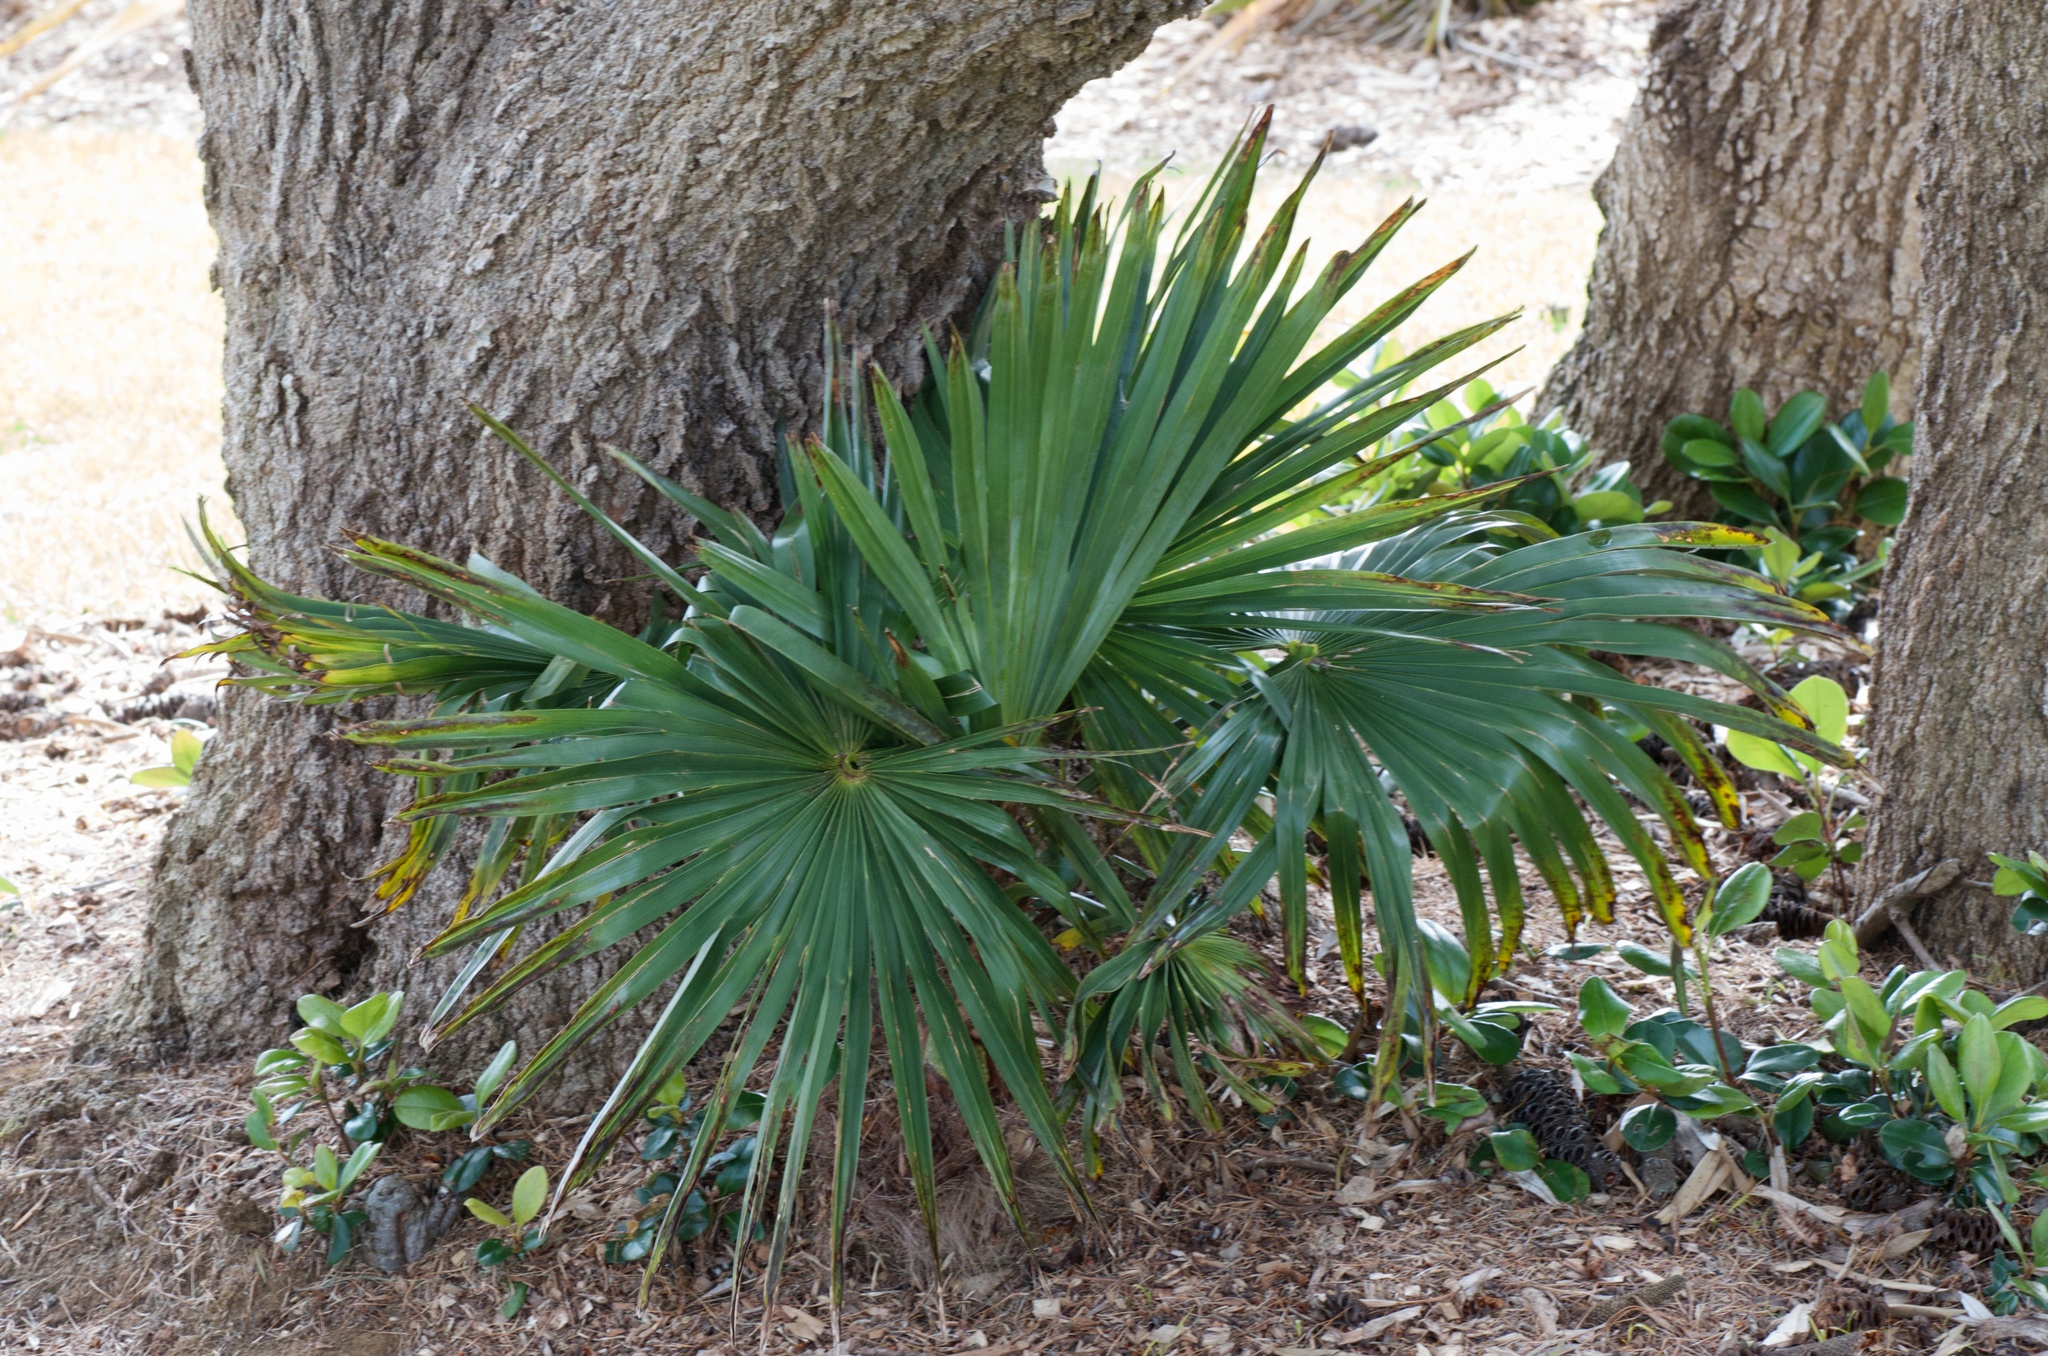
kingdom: Plantae
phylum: Tracheophyta
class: Liliopsida
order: Arecales
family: Arecaceae
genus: Trachycarpus
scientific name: Trachycarpus fortunei
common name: Chusan palm
